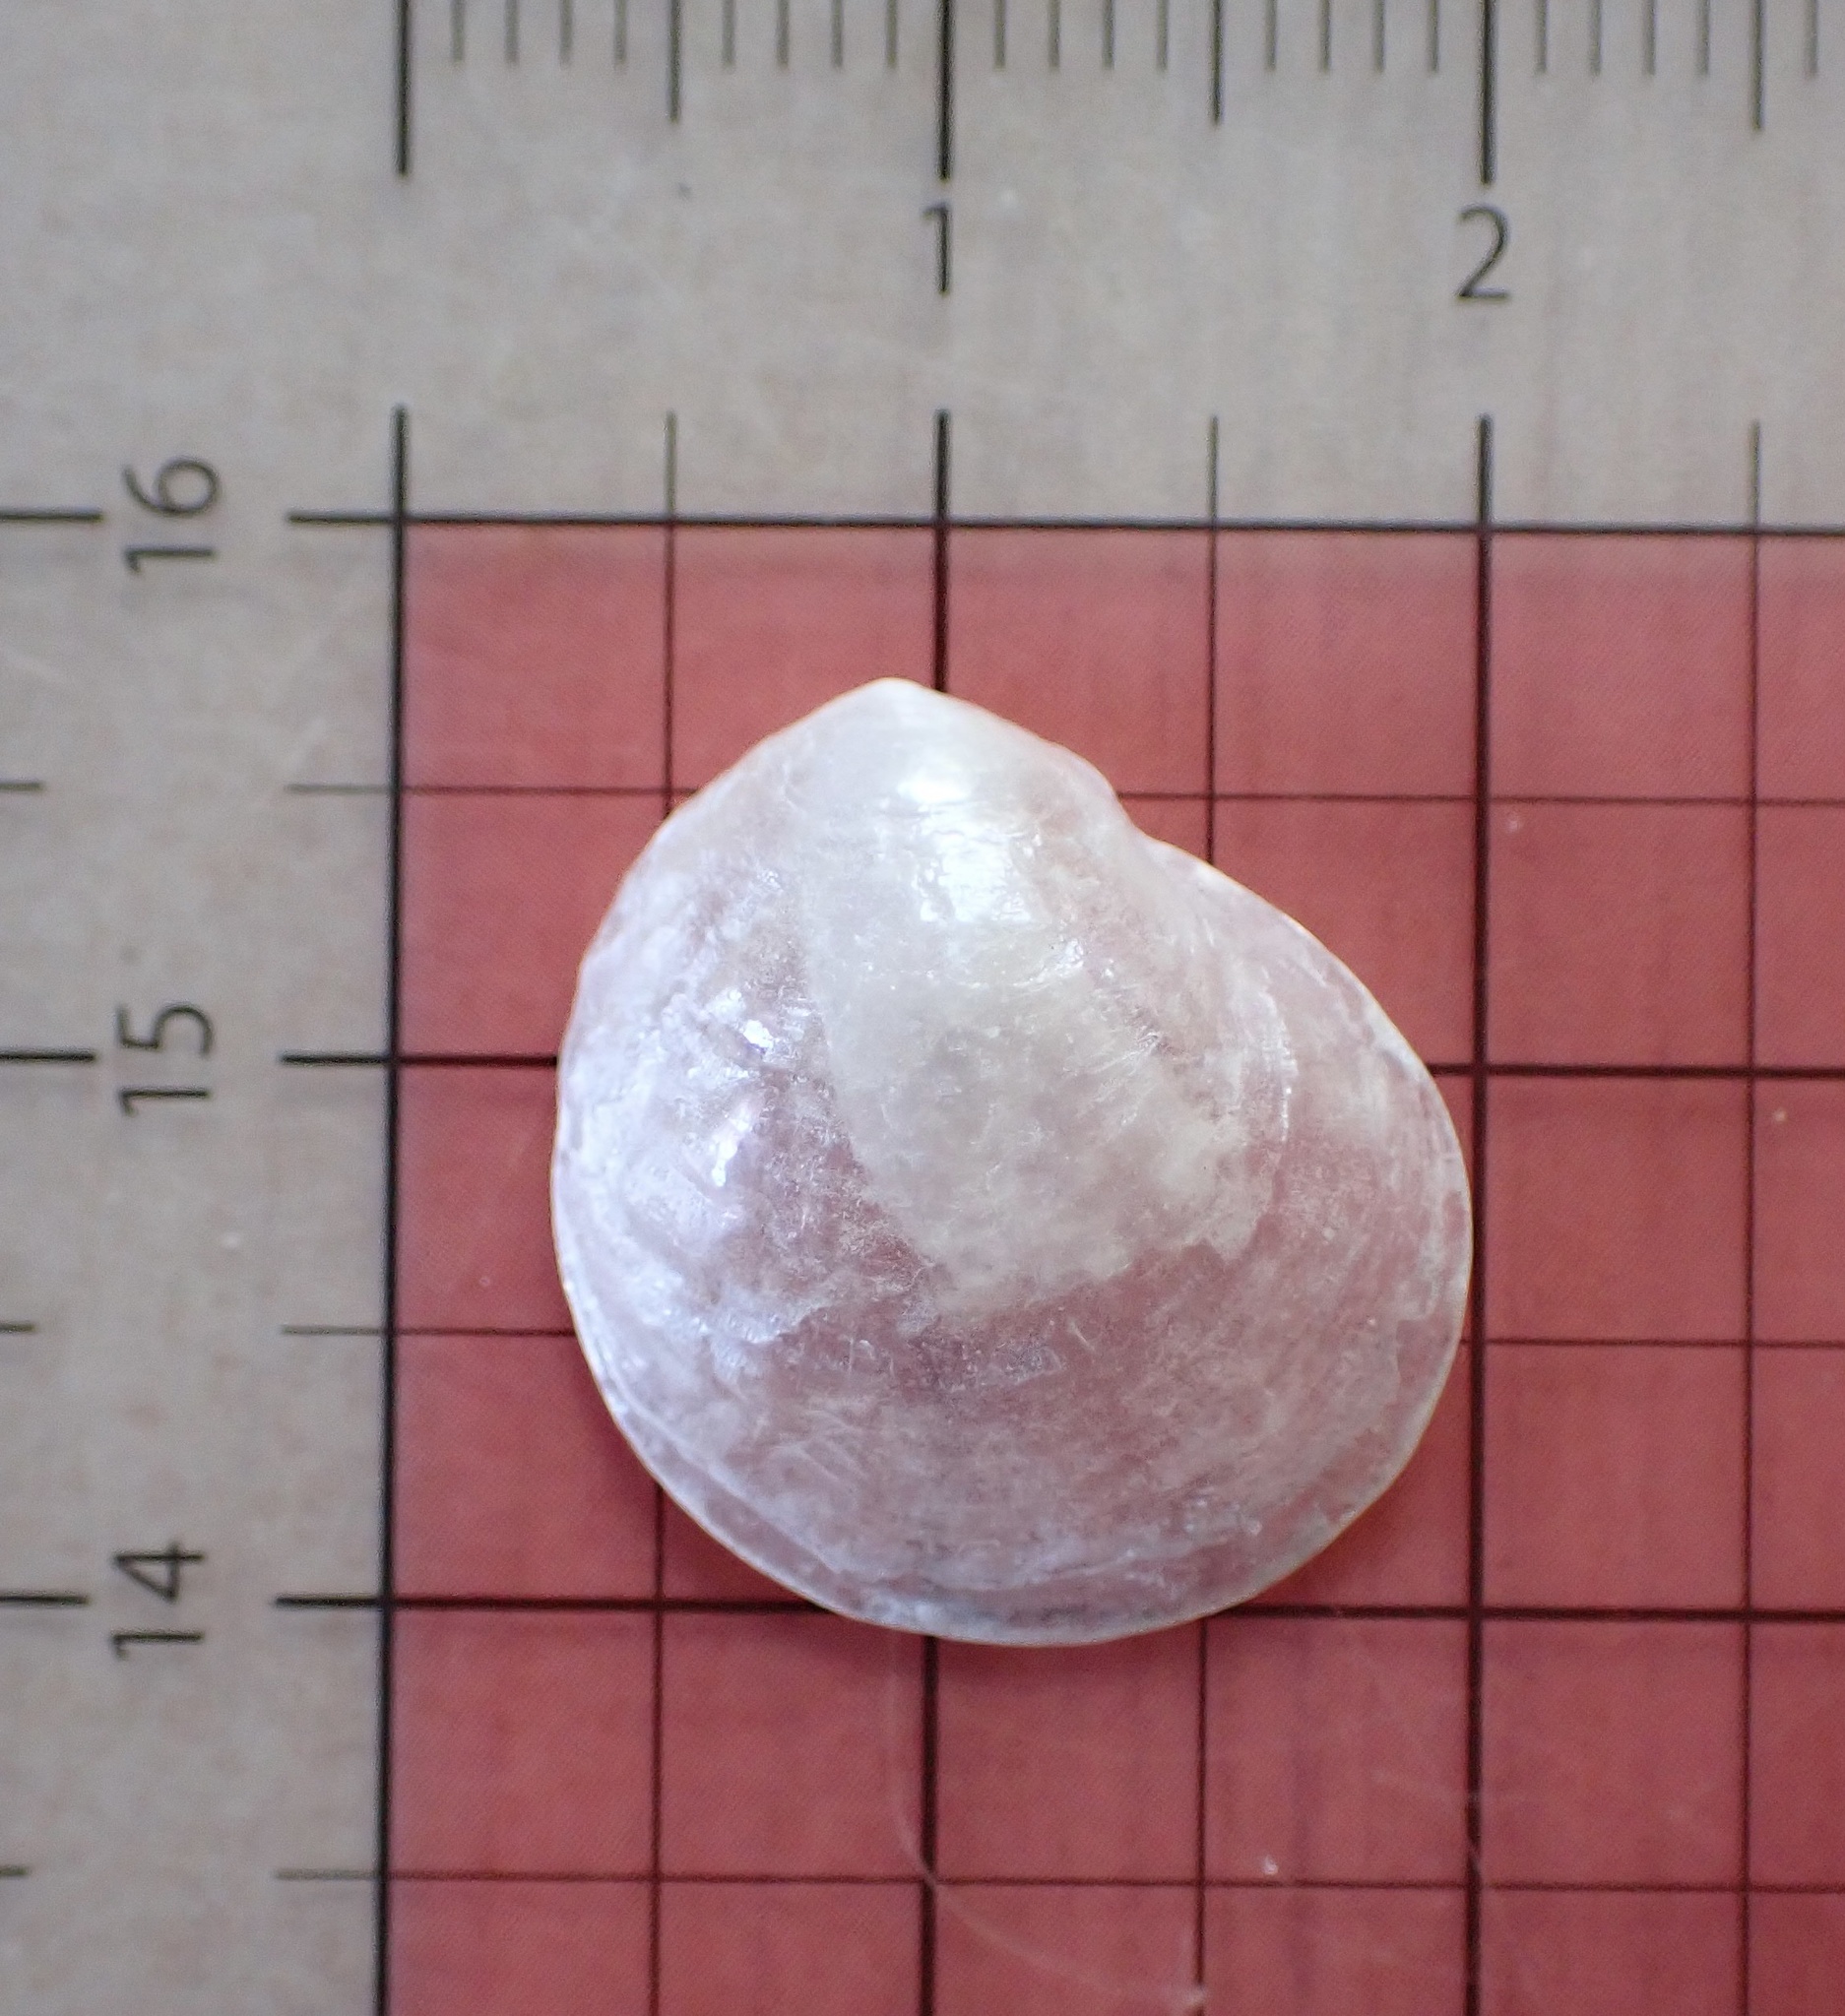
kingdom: Animalia
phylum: Mollusca
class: Bivalvia
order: Pectinida
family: Anomiidae
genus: Anomia
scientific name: Anomia simplex
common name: Common jingle shell
